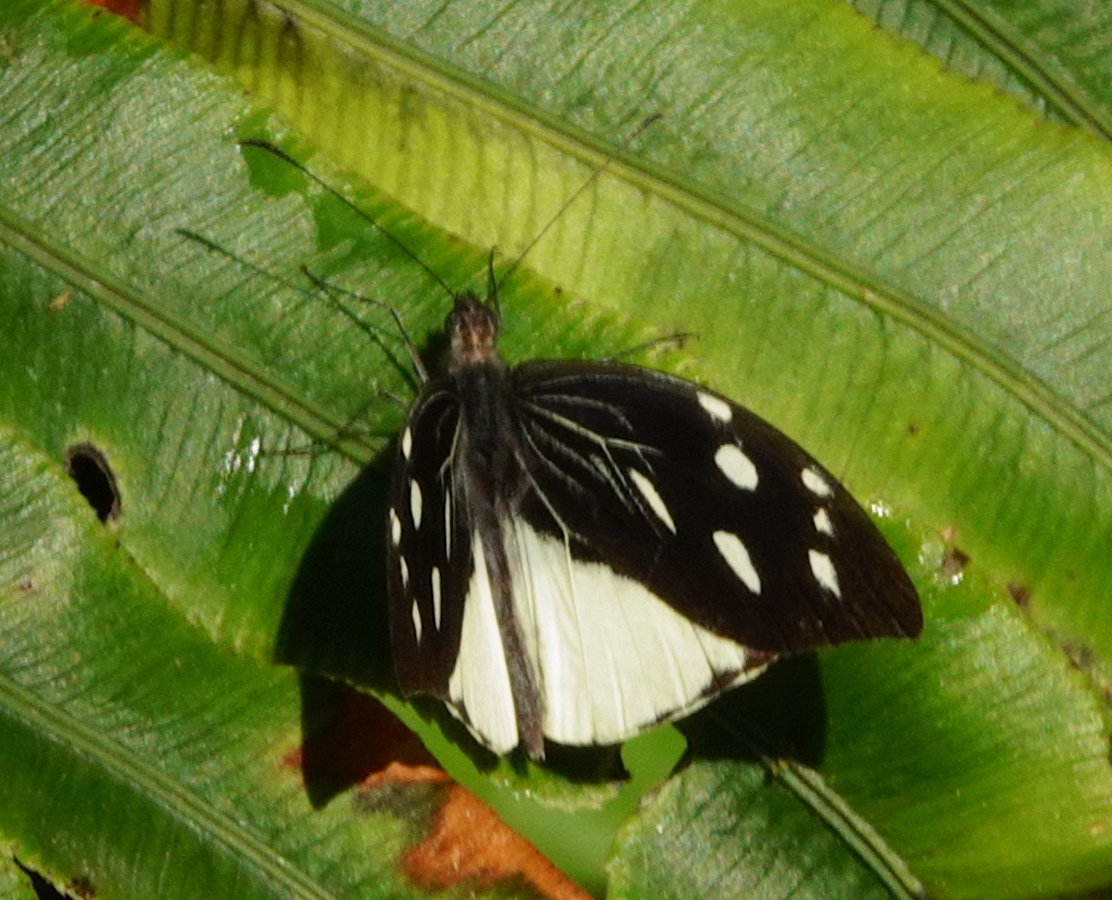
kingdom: Animalia
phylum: Arthropoda
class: Insecta
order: Lepidoptera
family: Pieridae
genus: Lieinix
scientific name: Lieinix nemesis
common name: Frosted mimic-white
